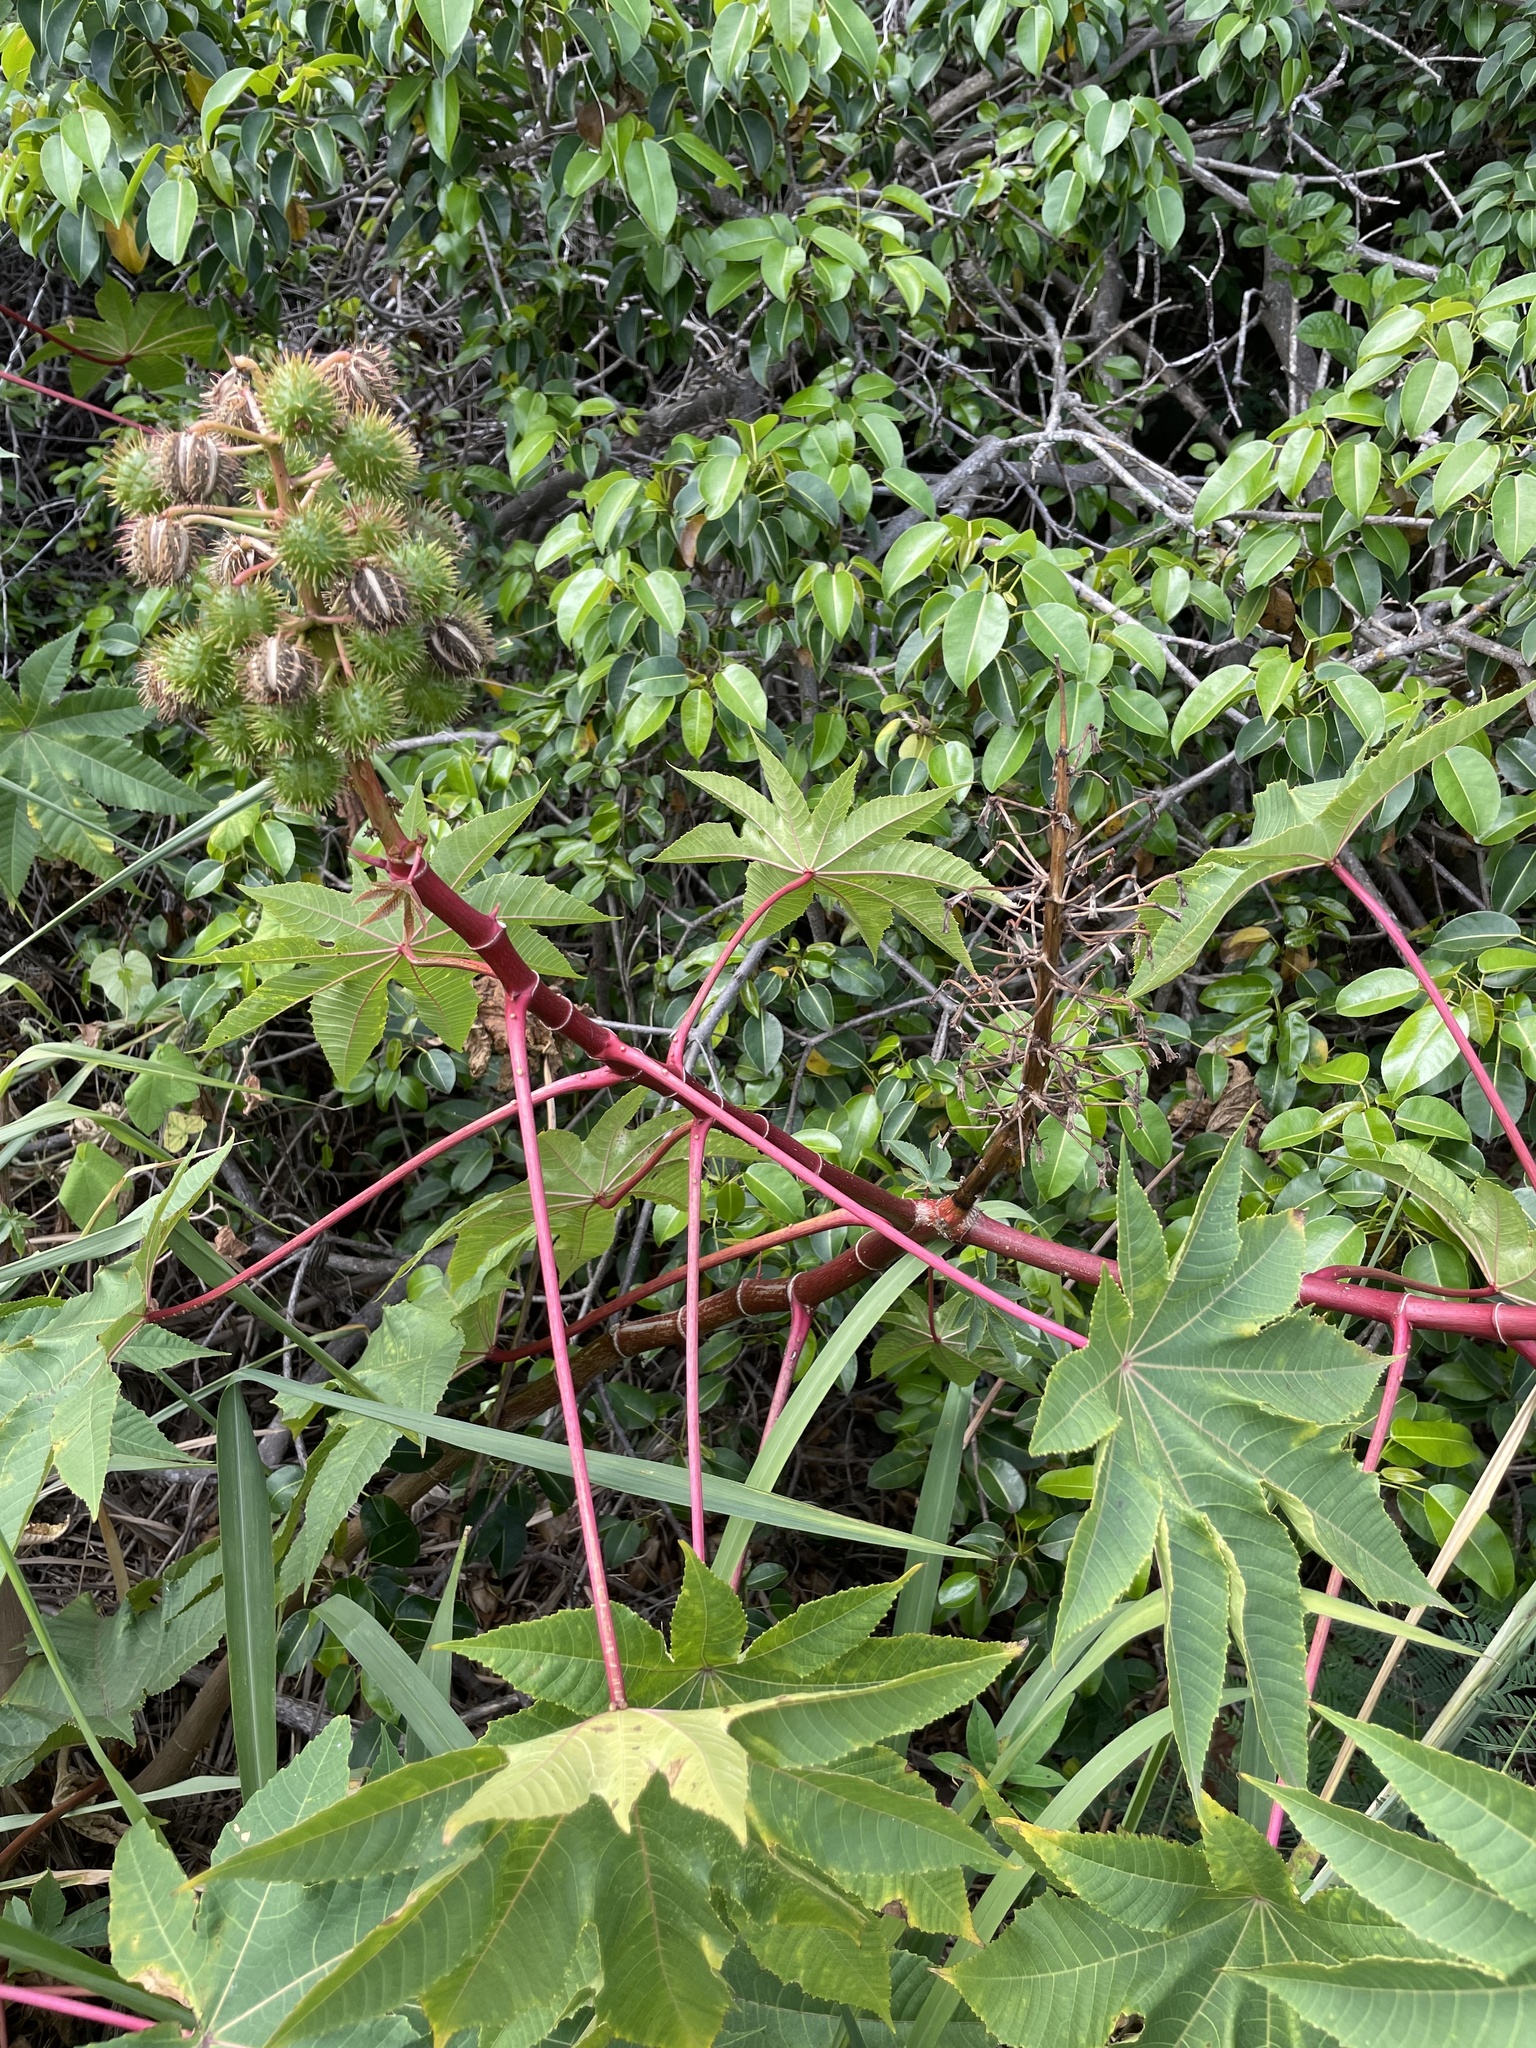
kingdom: Plantae
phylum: Tracheophyta
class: Magnoliopsida
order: Malpighiales
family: Euphorbiaceae
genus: Ricinus
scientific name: Ricinus communis
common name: Castor-oil-plant
